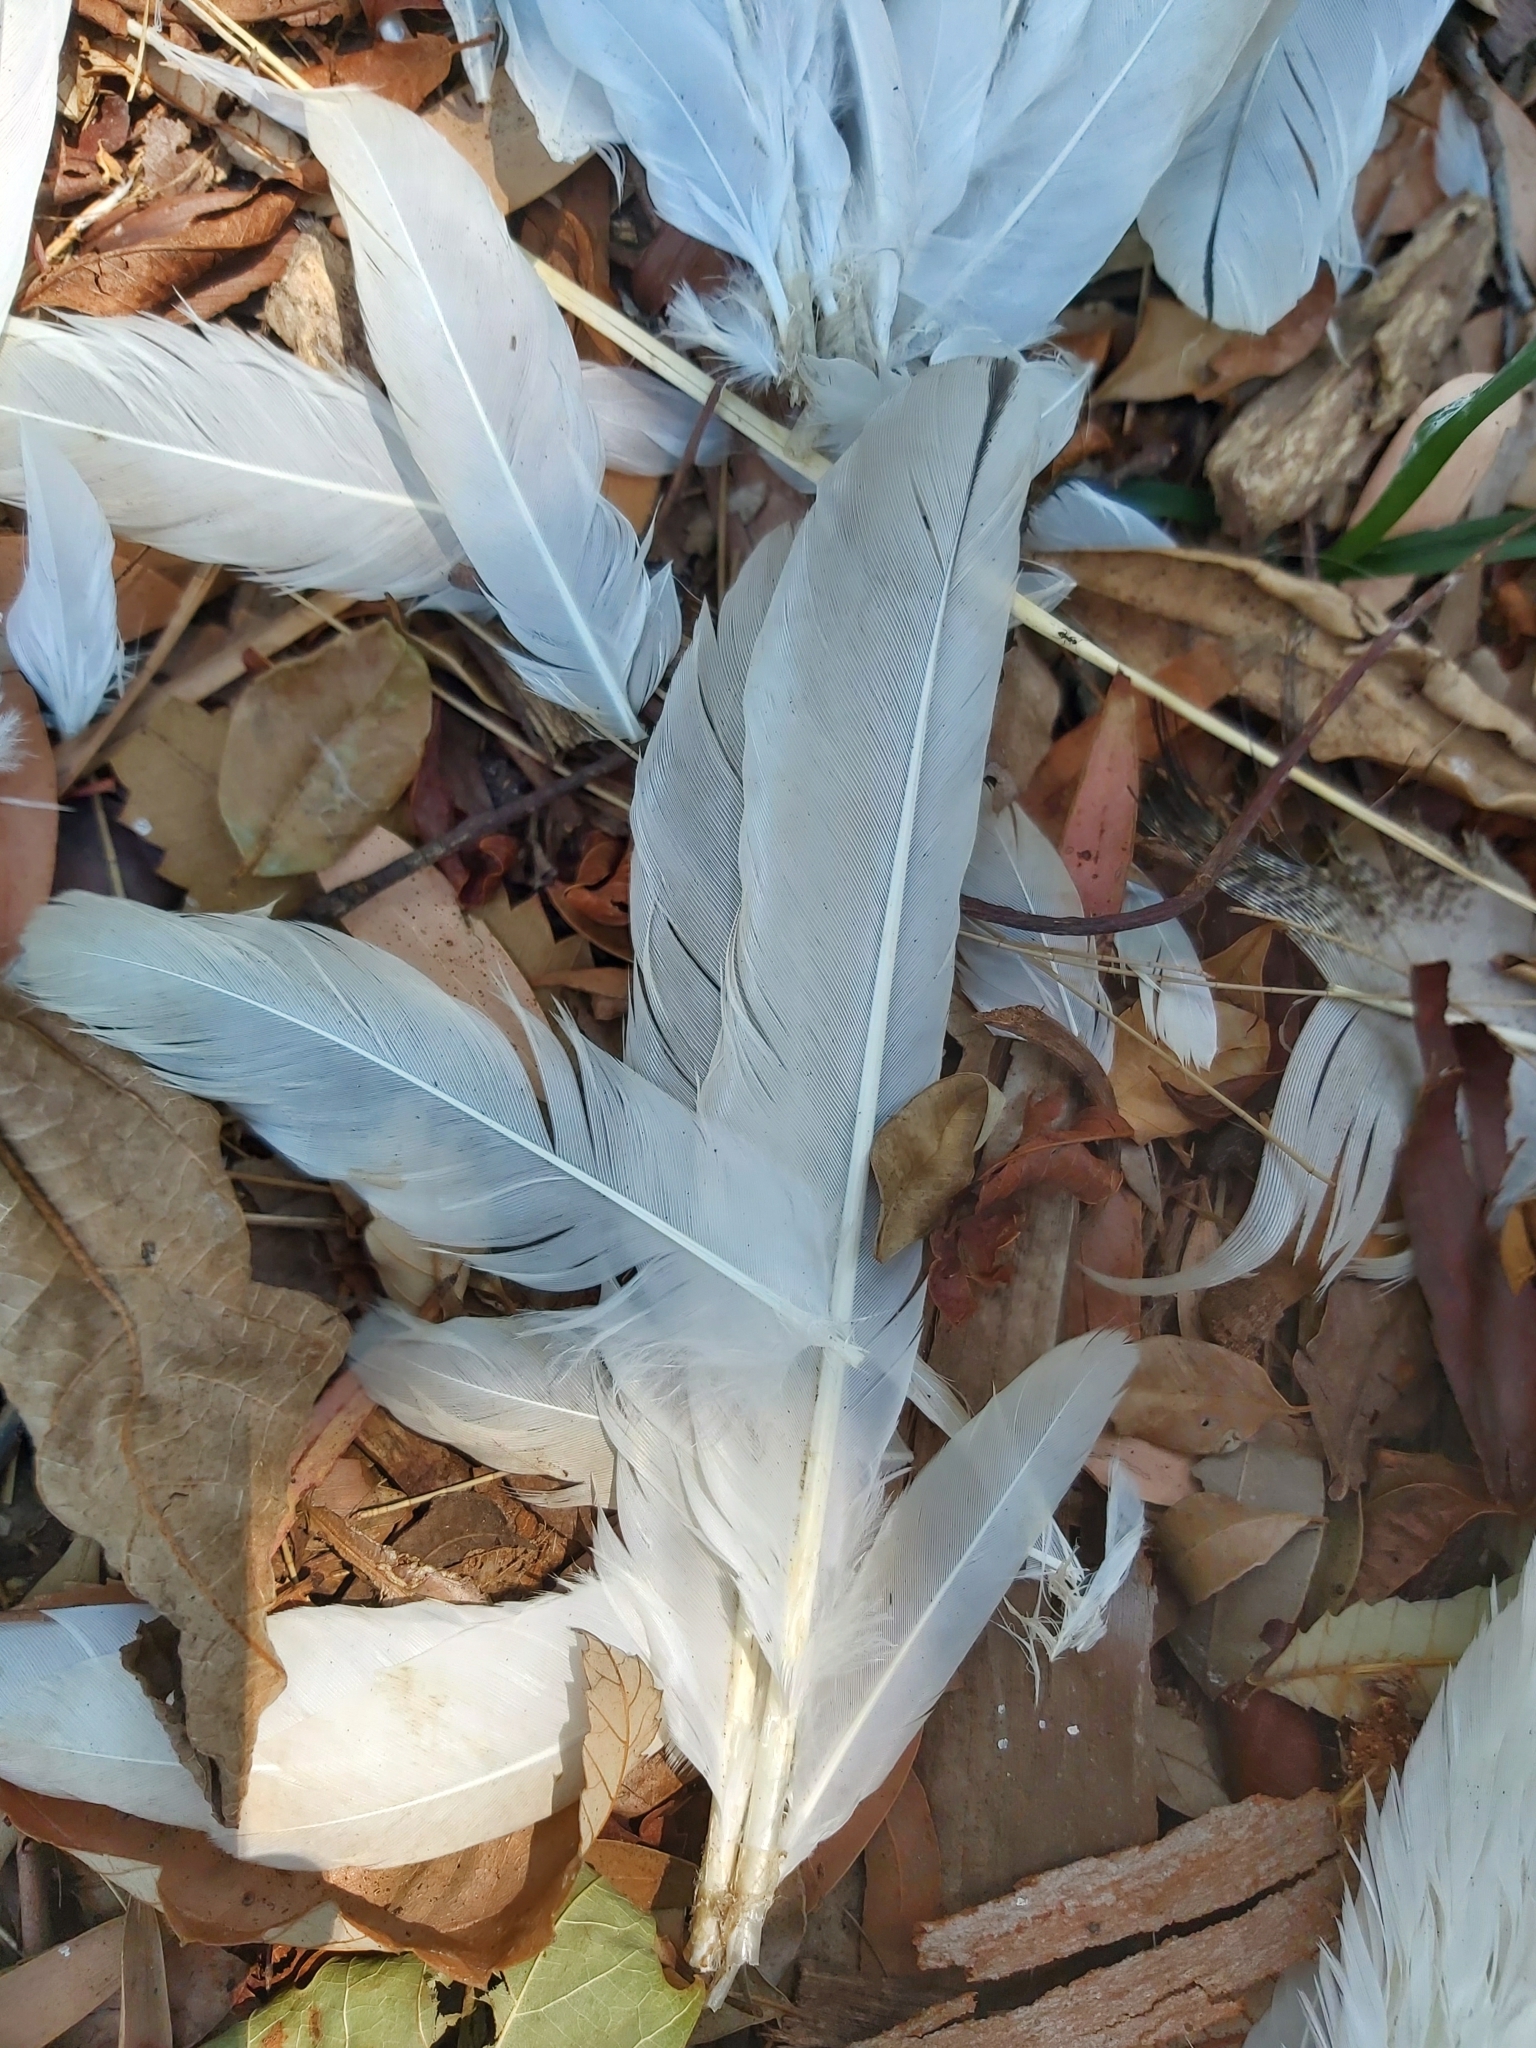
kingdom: Animalia
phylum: Chordata
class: Aves
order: Pelecaniformes
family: Threskiornithidae
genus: Threskiornis
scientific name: Threskiornis molucca
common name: Australian white ibis
